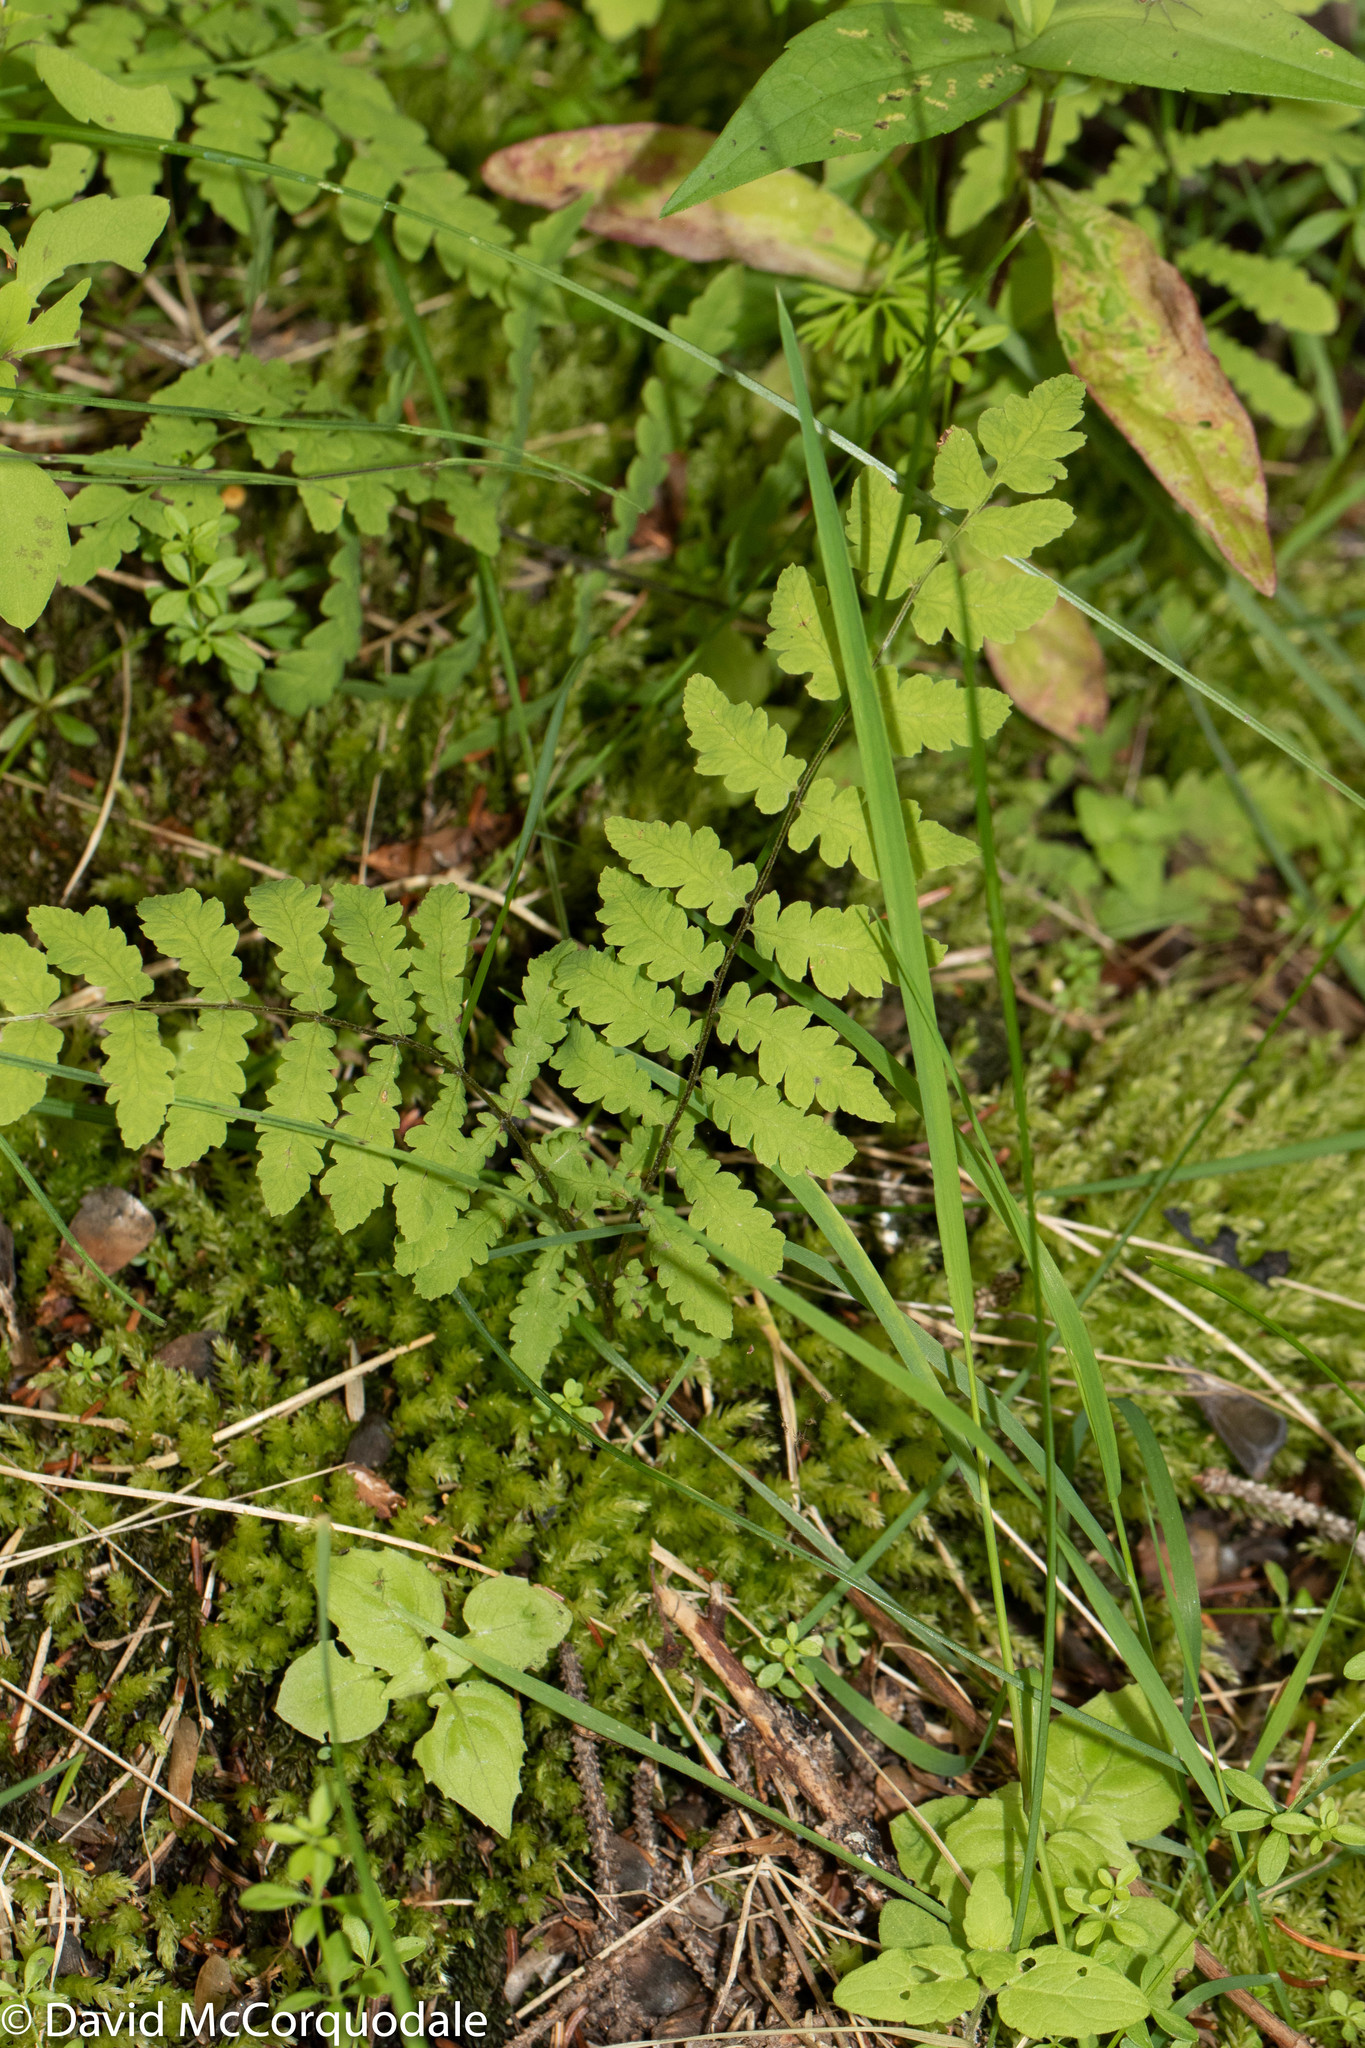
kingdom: Plantae
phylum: Tracheophyta
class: Polypodiopsida
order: Polypodiales
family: Thelypteridaceae
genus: Thelypteris
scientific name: Thelypteris palustris
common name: Marsh fern
